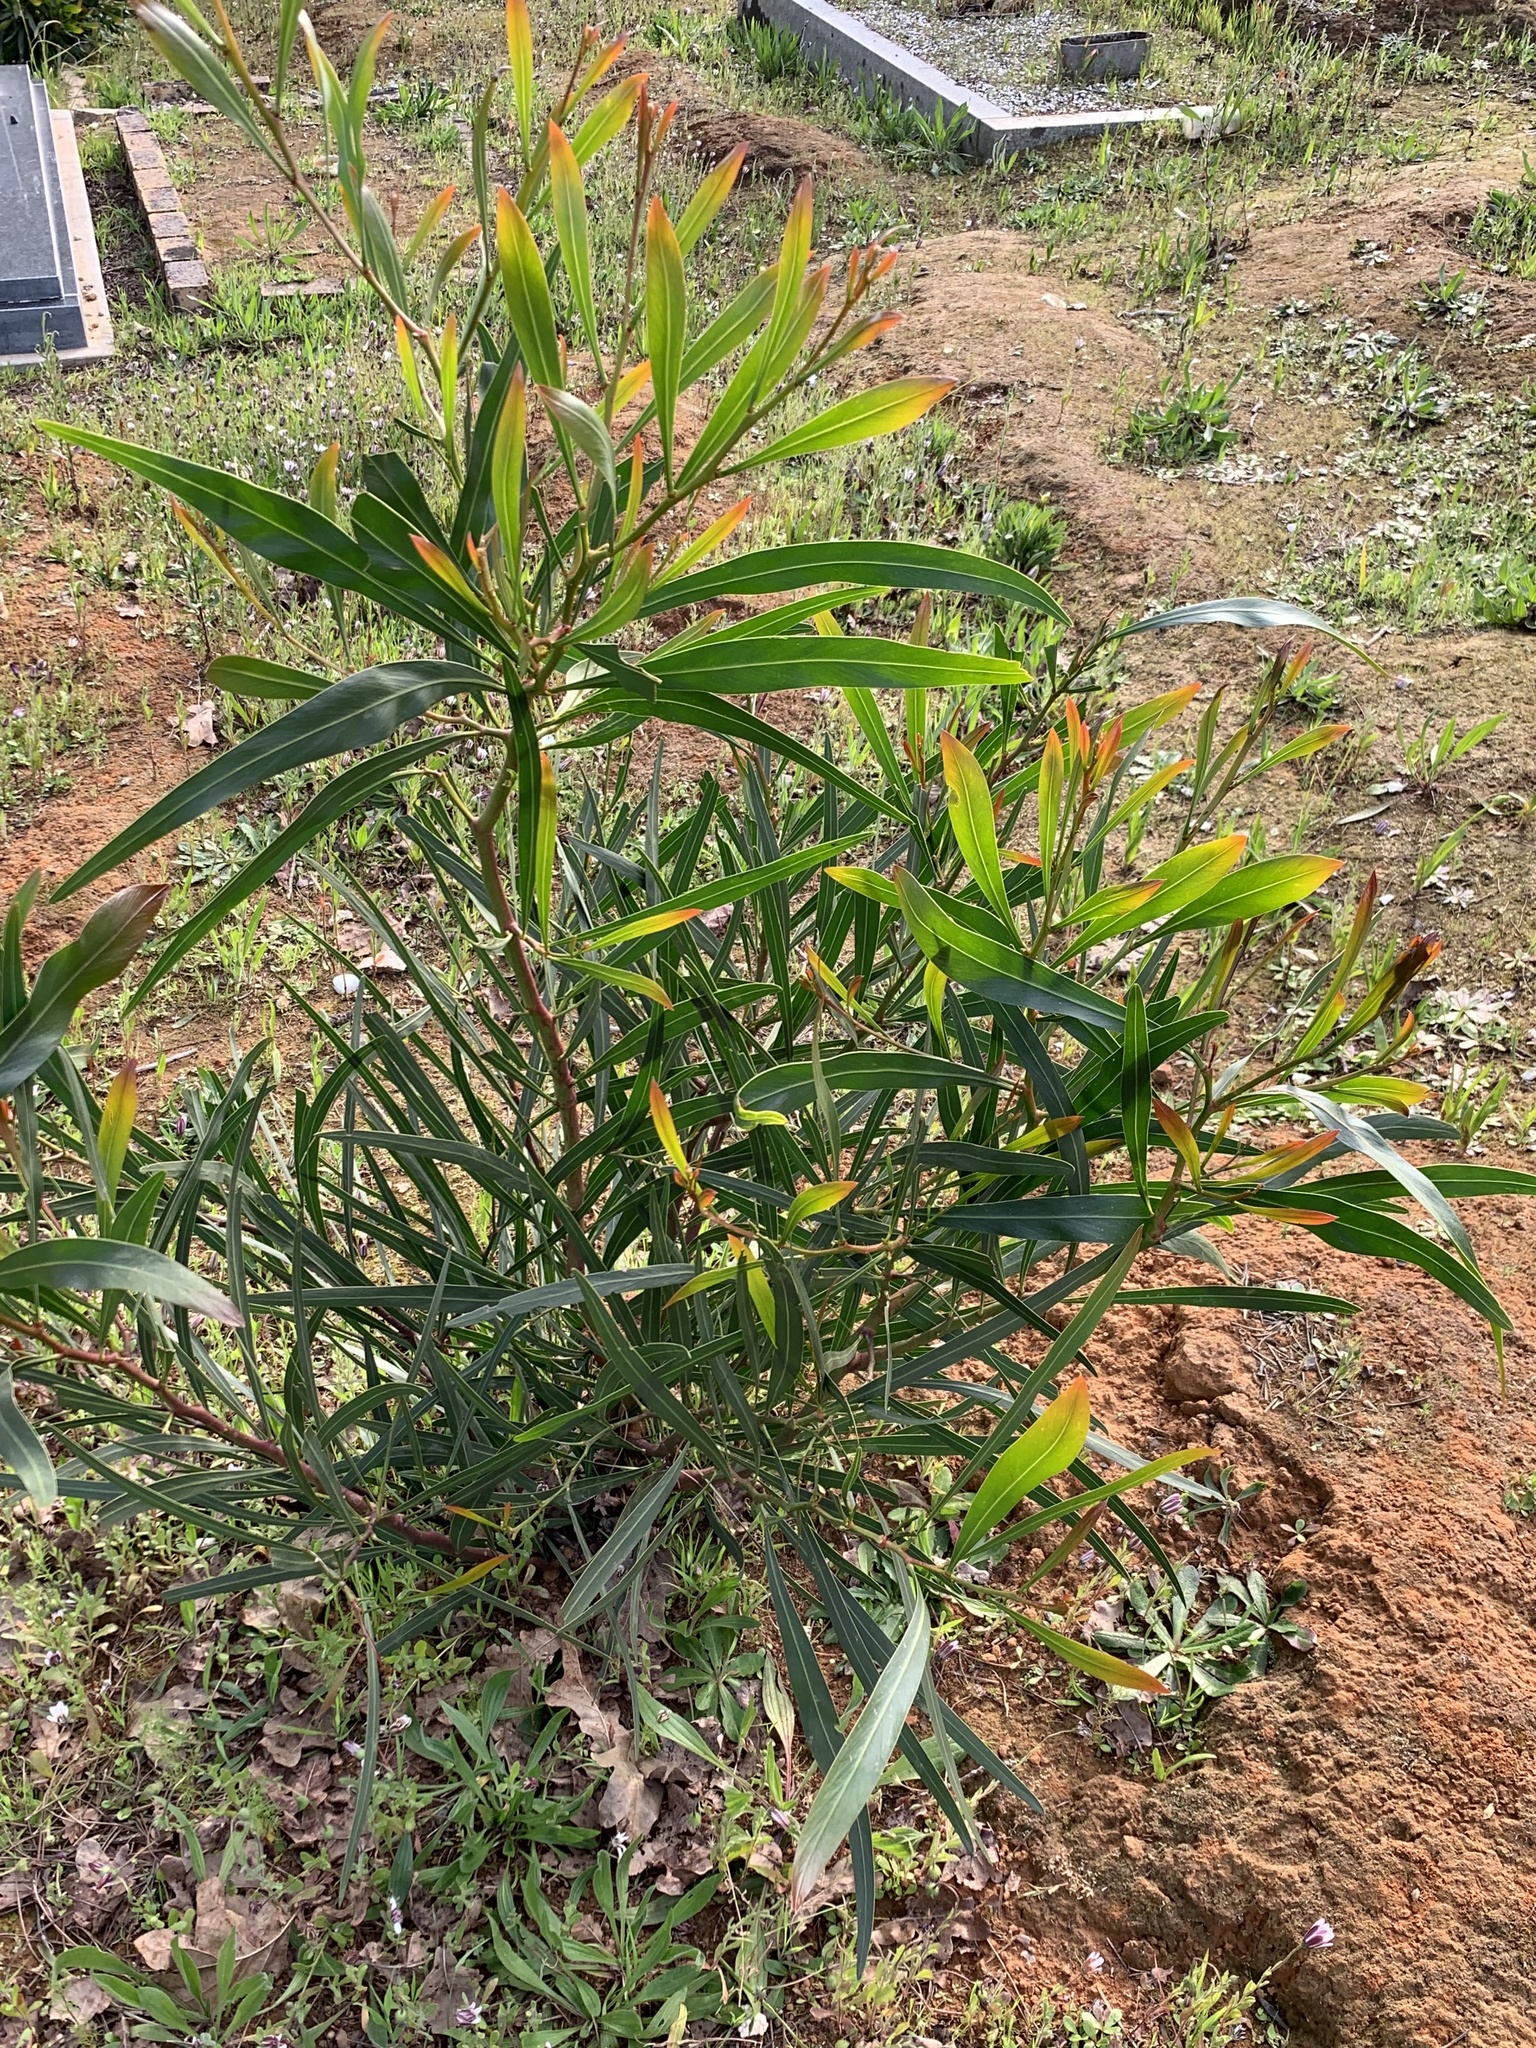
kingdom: Plantae
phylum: Tracheophyta
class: Magnoliopsida
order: Fabales
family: Fabaceae
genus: Acacia
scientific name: Acacia saligna
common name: Orange wattle
